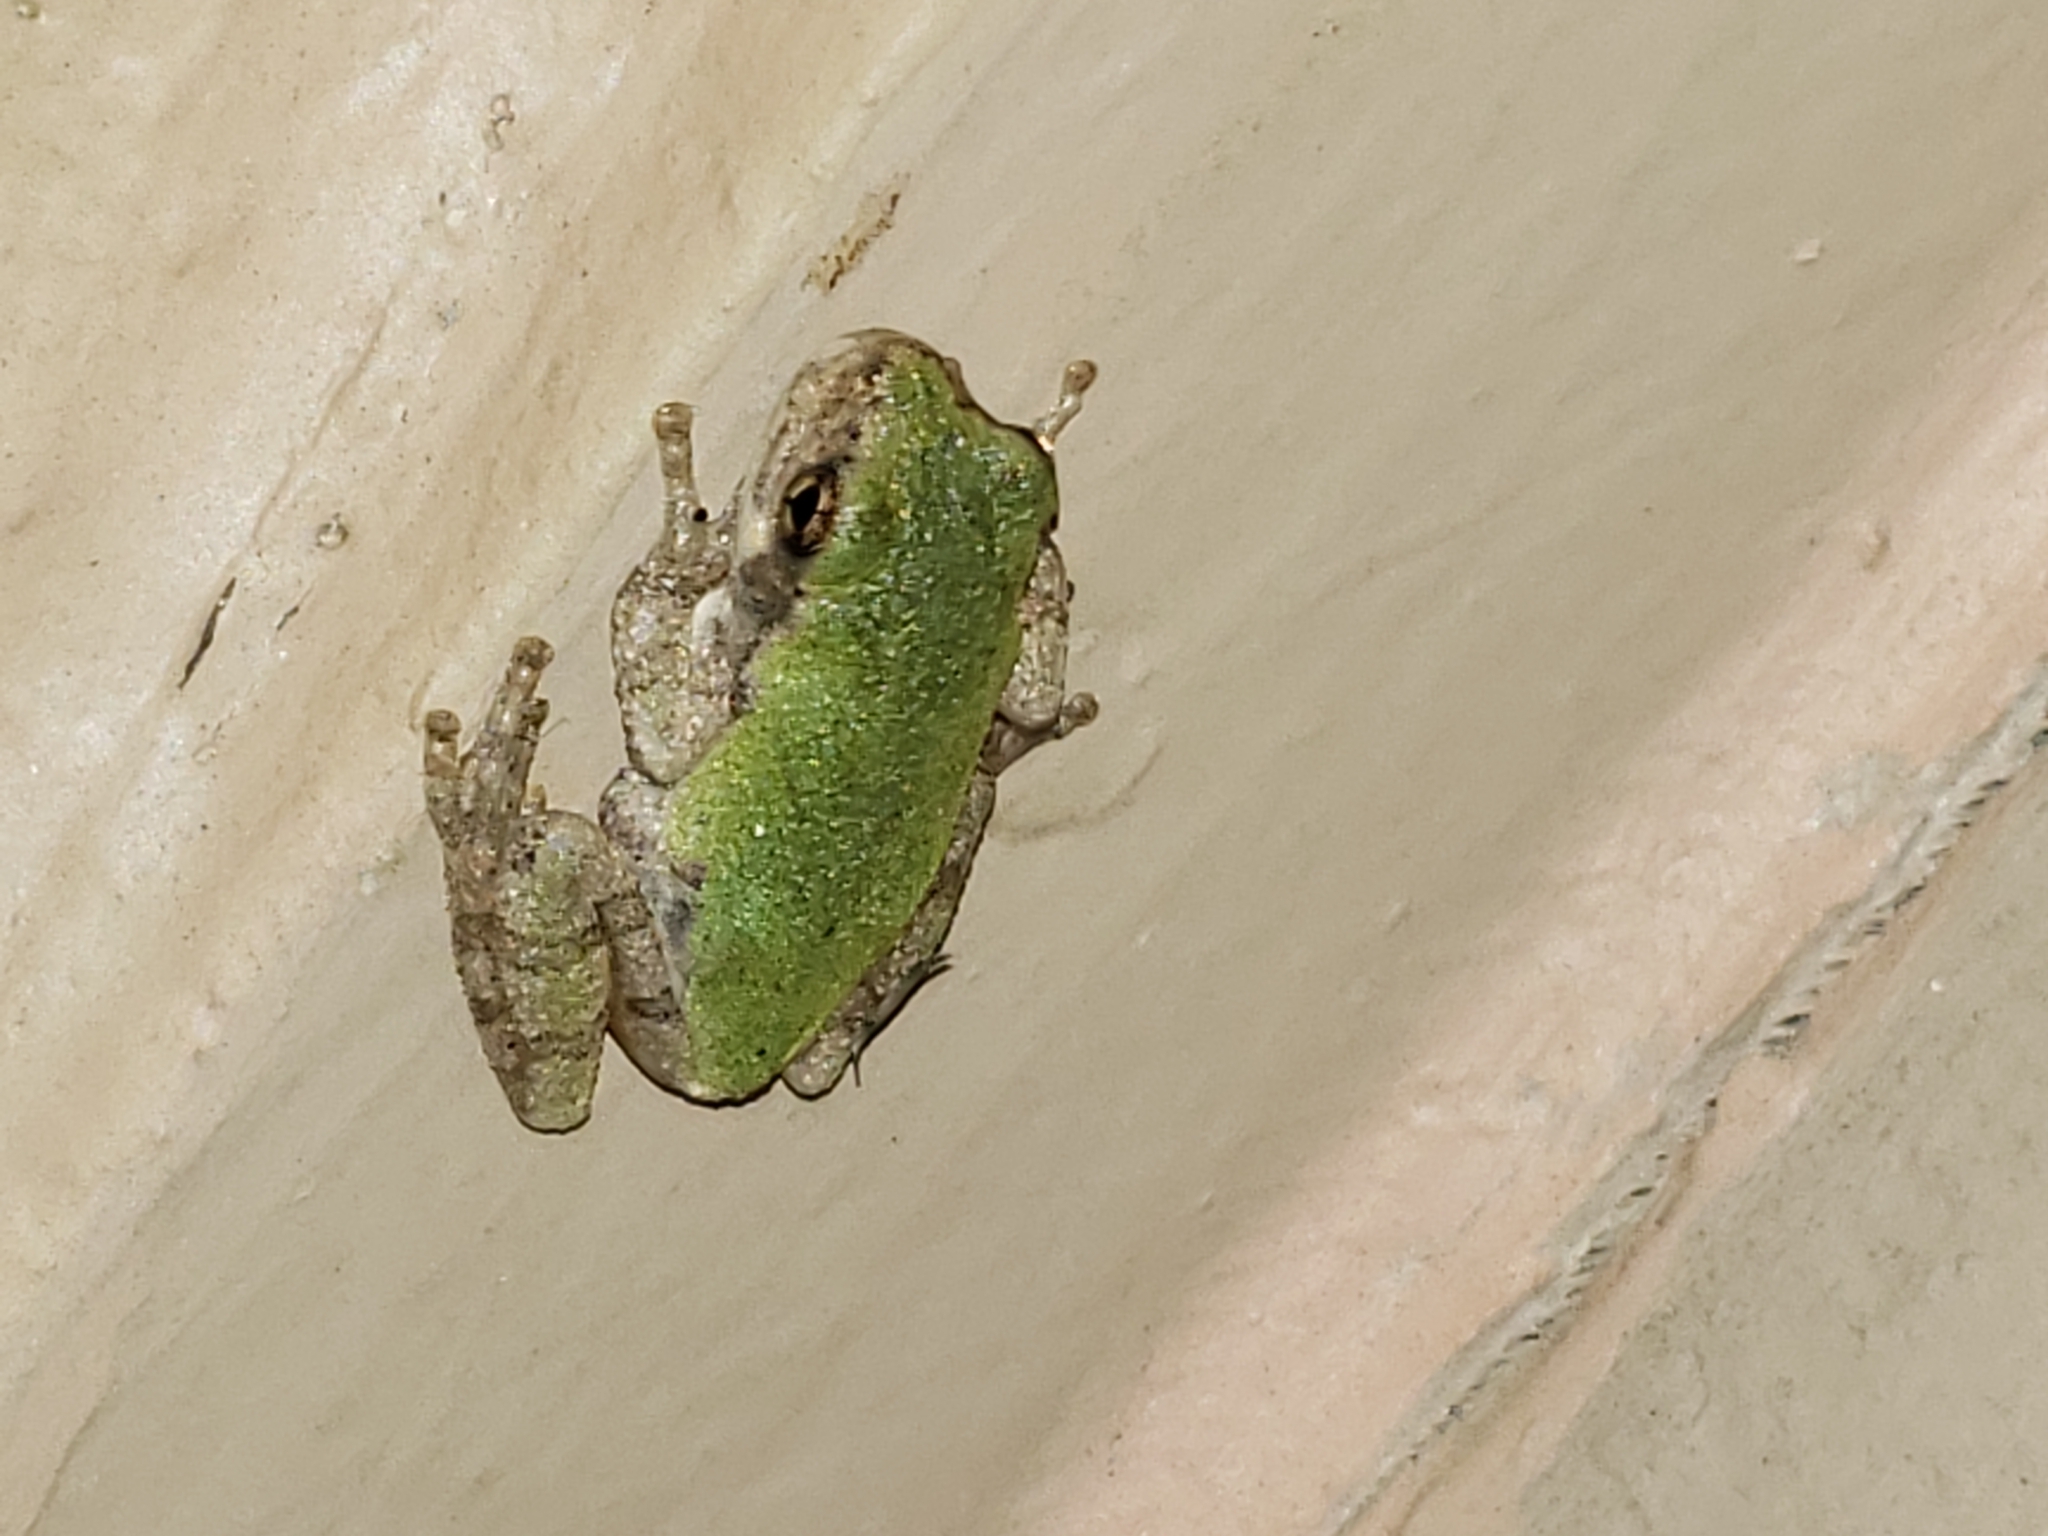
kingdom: Animalia
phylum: Chordata
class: Amphibia
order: Anura
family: Hylidae
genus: Hyla
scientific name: Hyla
